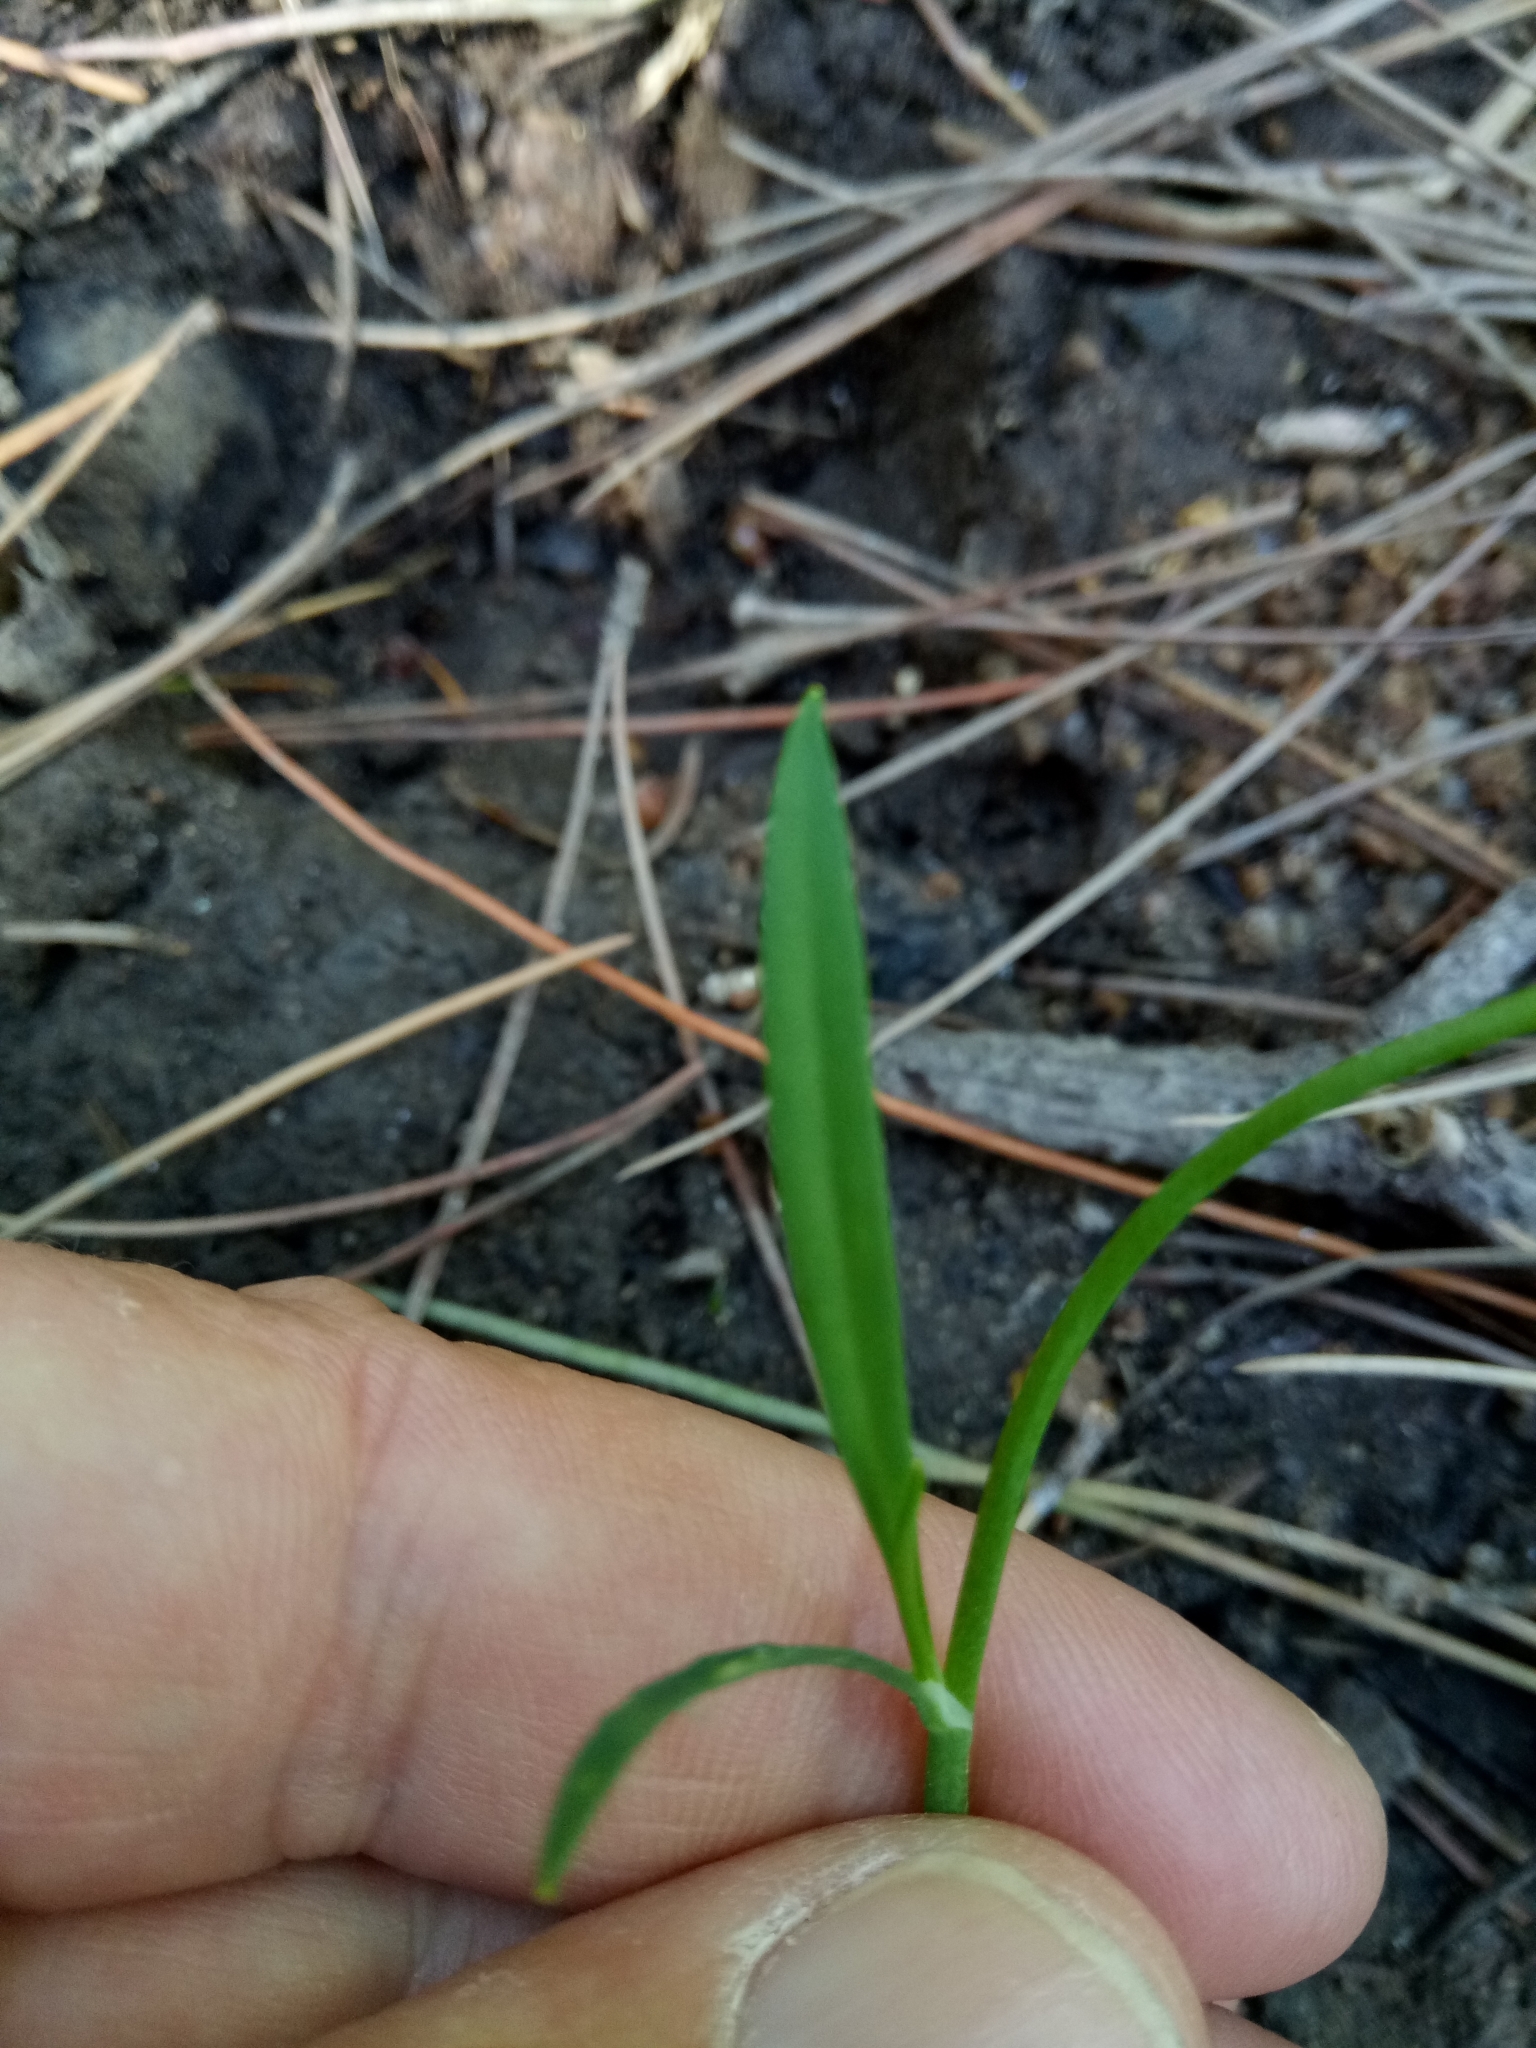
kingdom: Plantae
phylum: Tracheophyta
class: Magnoliopsida
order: Ranunculales
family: Ranunculaceae
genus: Ranunculus
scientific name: Ranunculus flammula
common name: Lesser spearwort
